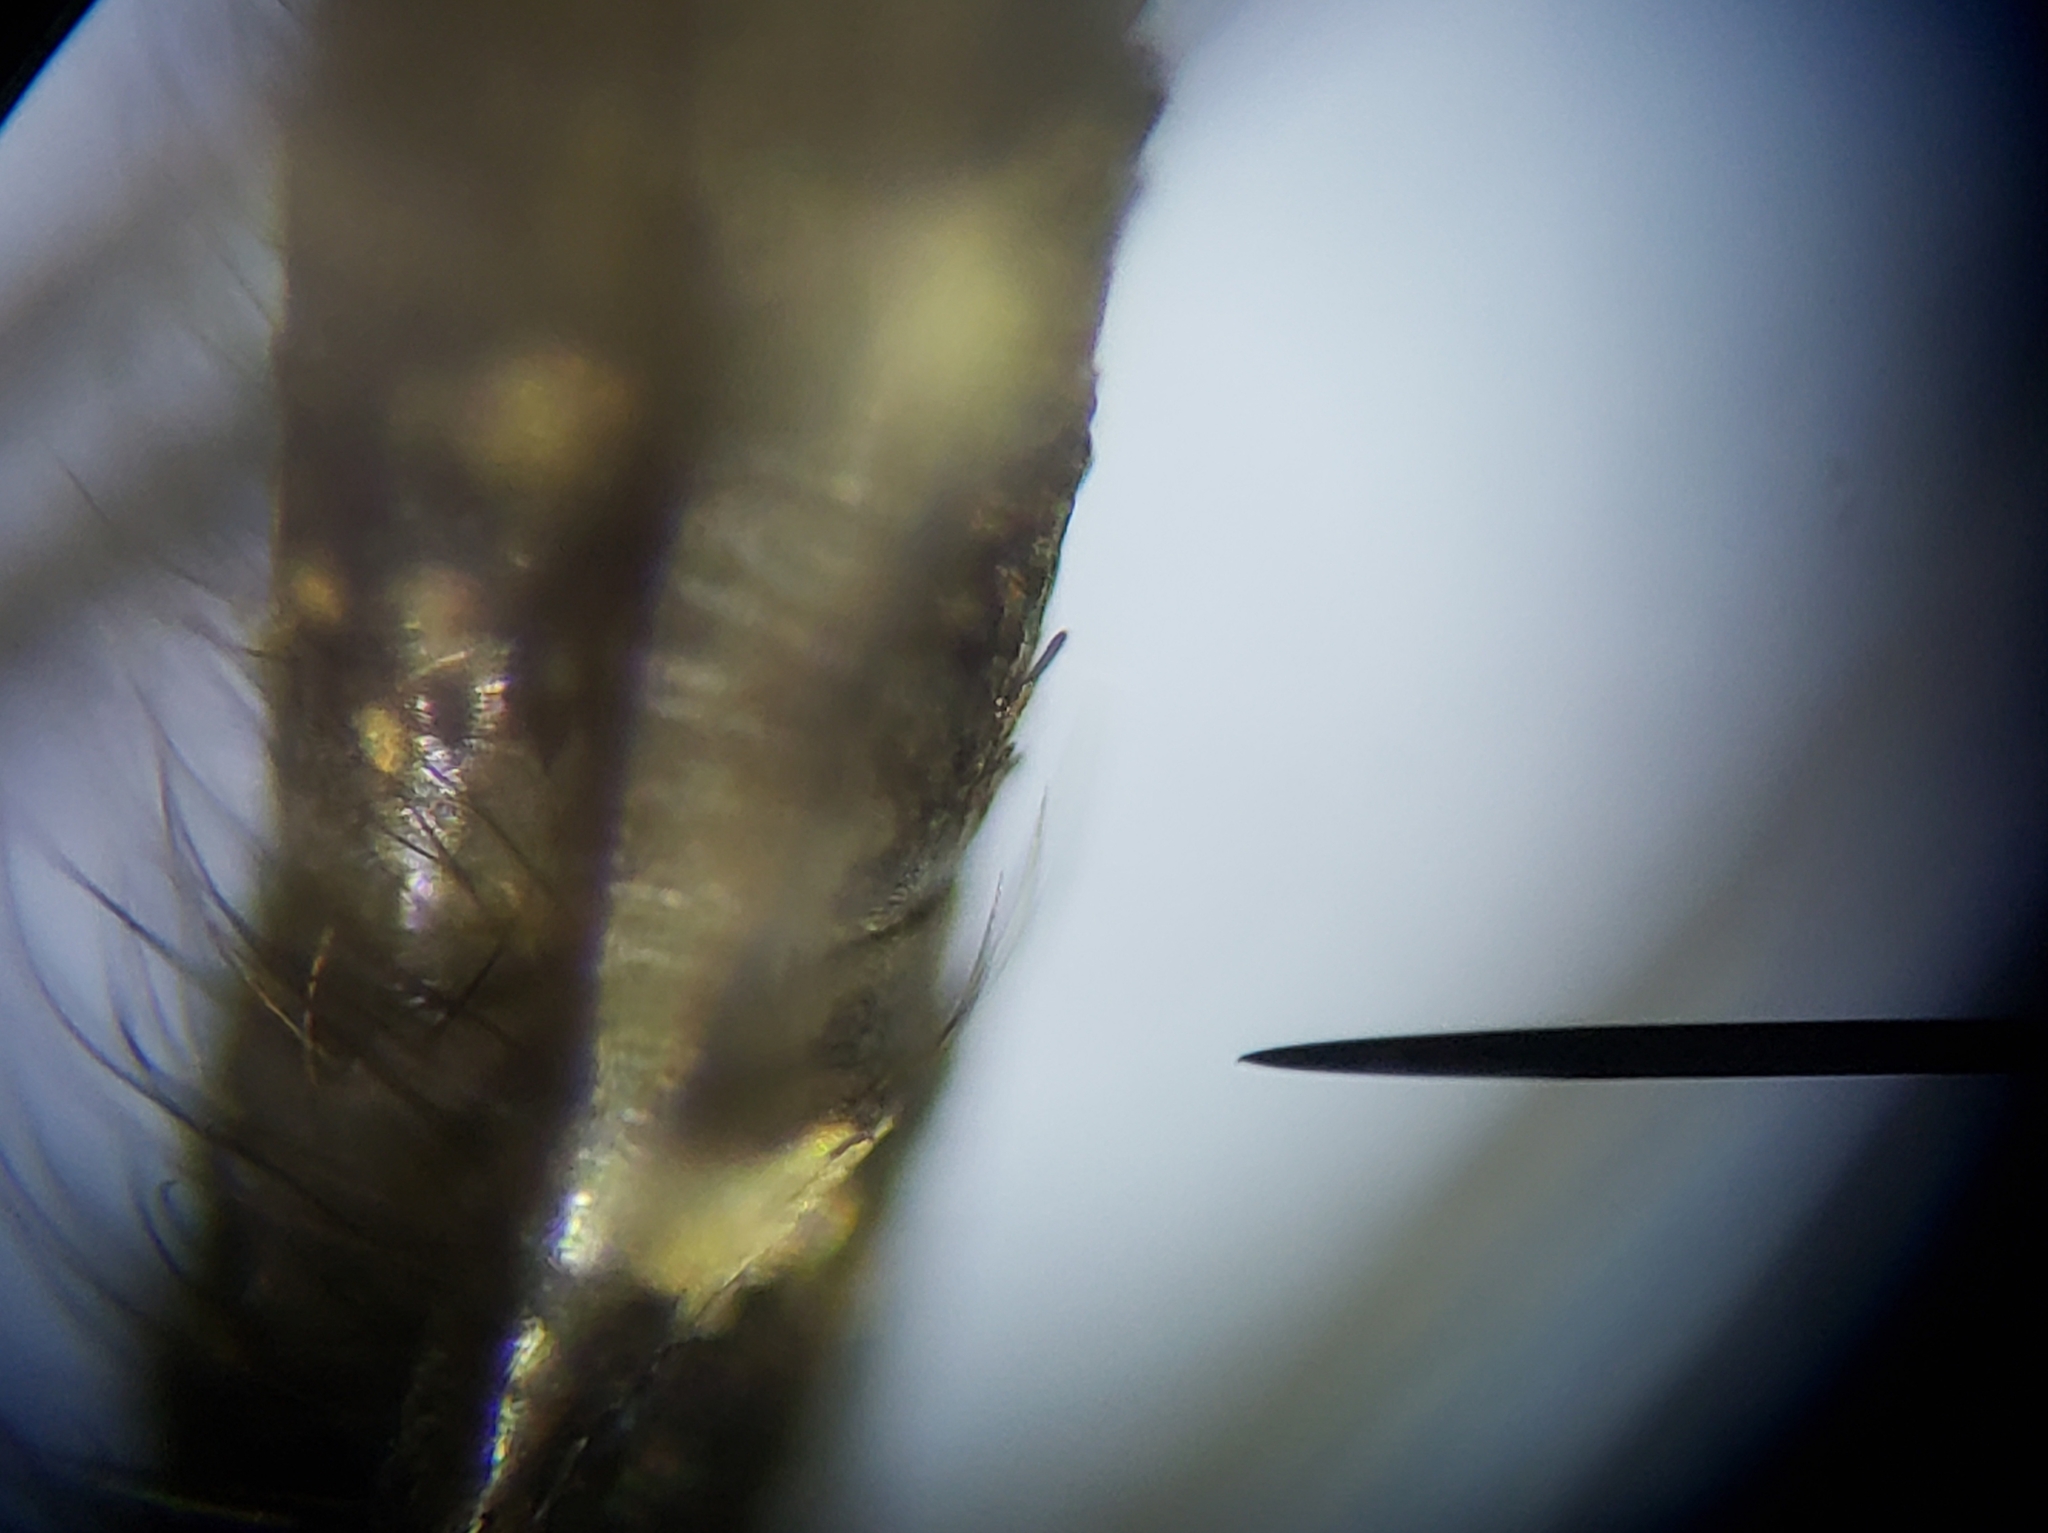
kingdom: Animalia
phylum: Arthropoda
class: Insecta
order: Diptera
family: Culicidae
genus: Psorophora
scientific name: Psorophora columbiae
